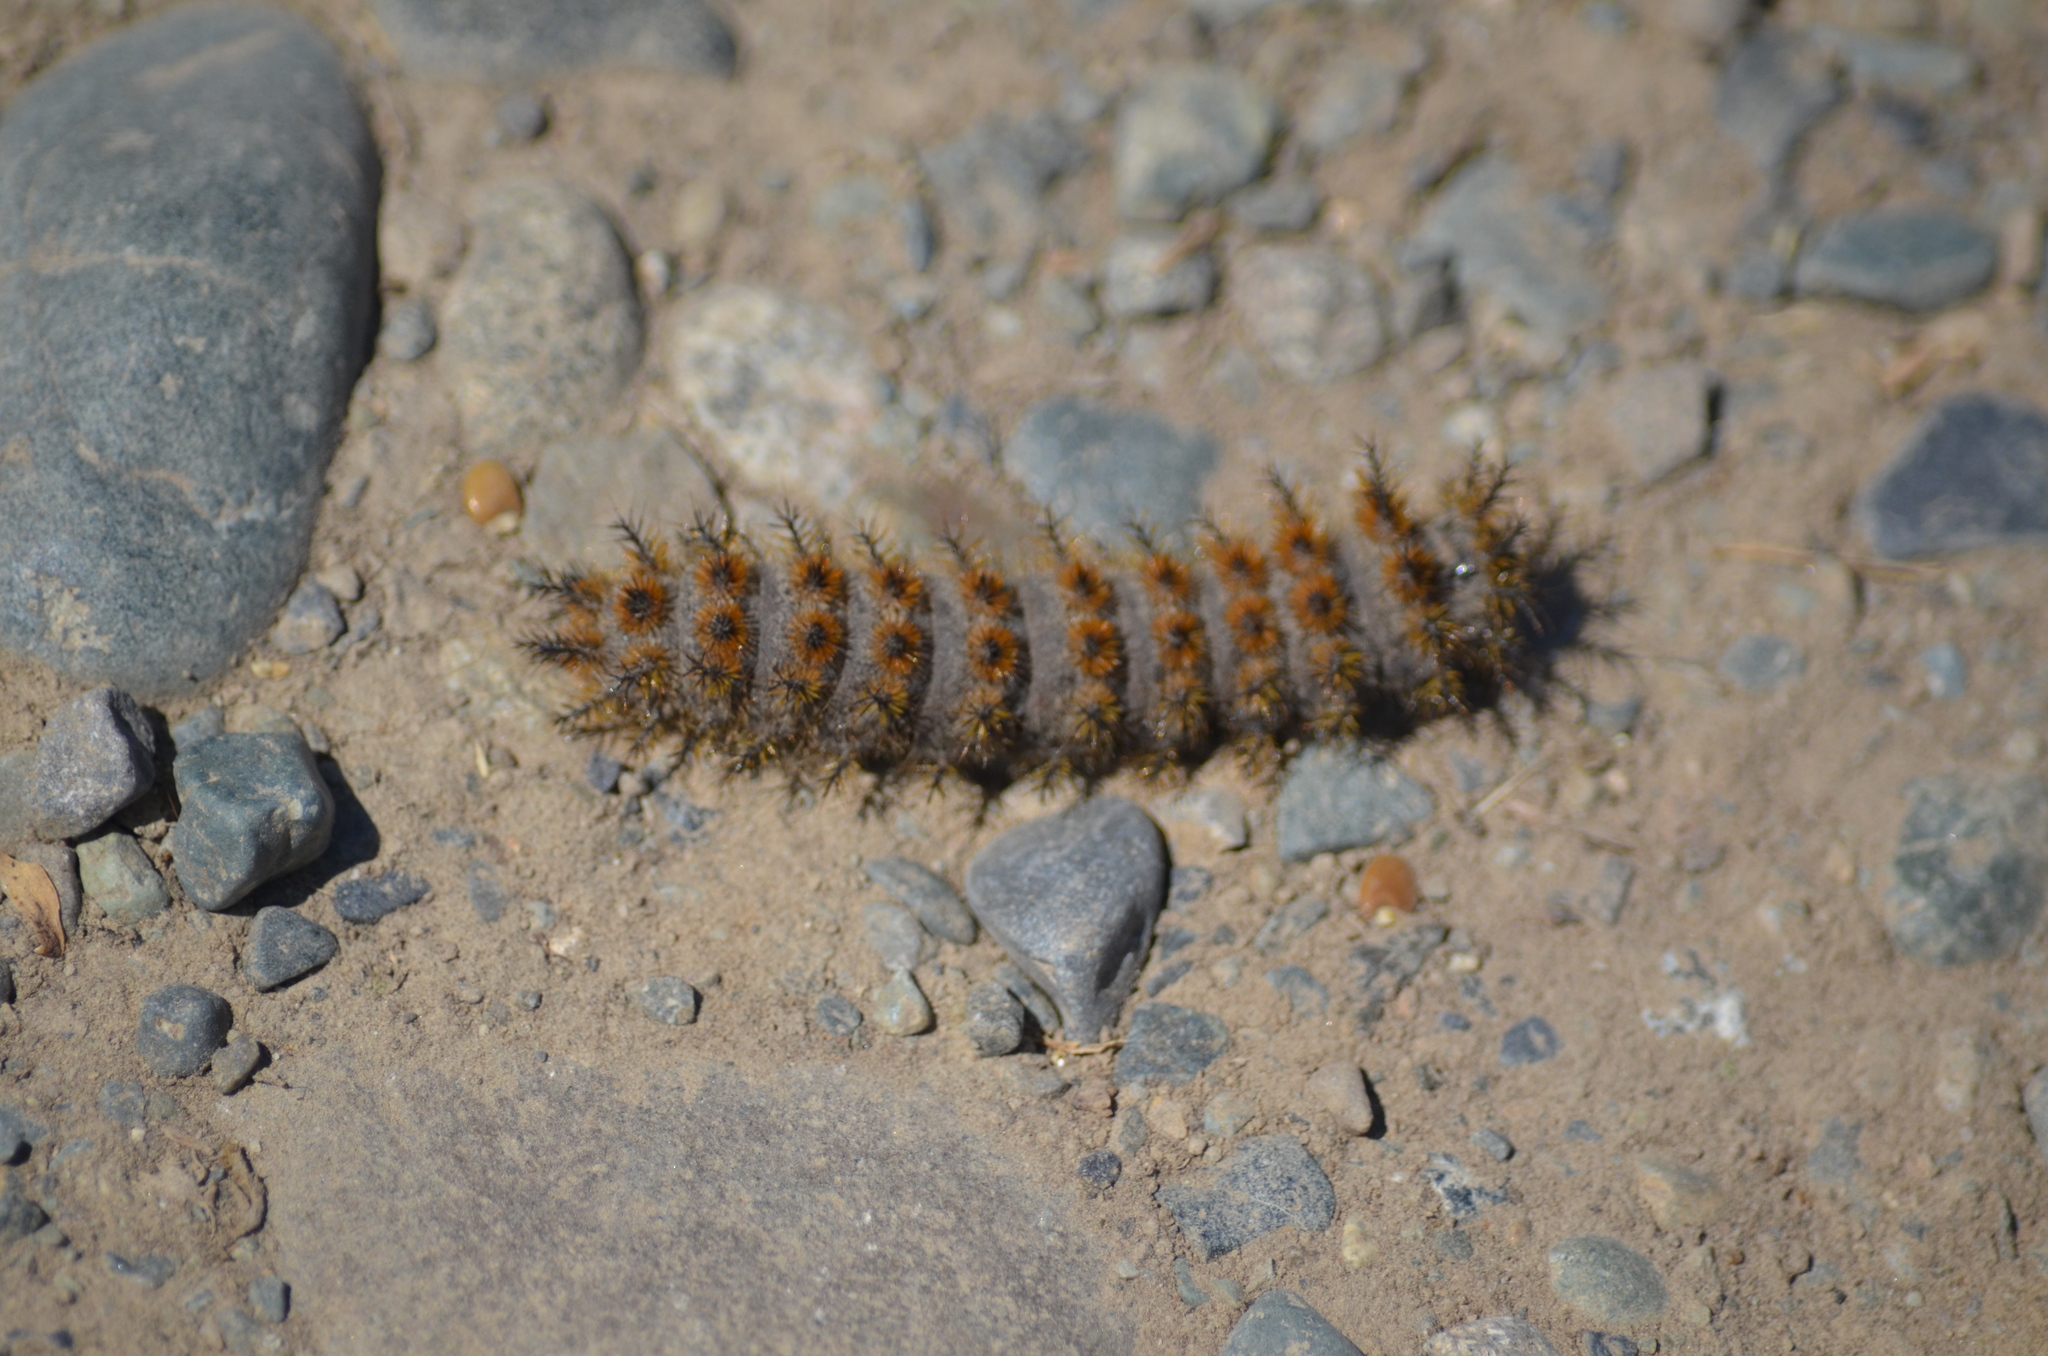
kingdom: Animalia
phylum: Arthropoda
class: Insecta
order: Lepidoptera
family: Saturniidae
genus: Hemileuca
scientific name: Hemileuca eglanterina
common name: Western sheepmoth
